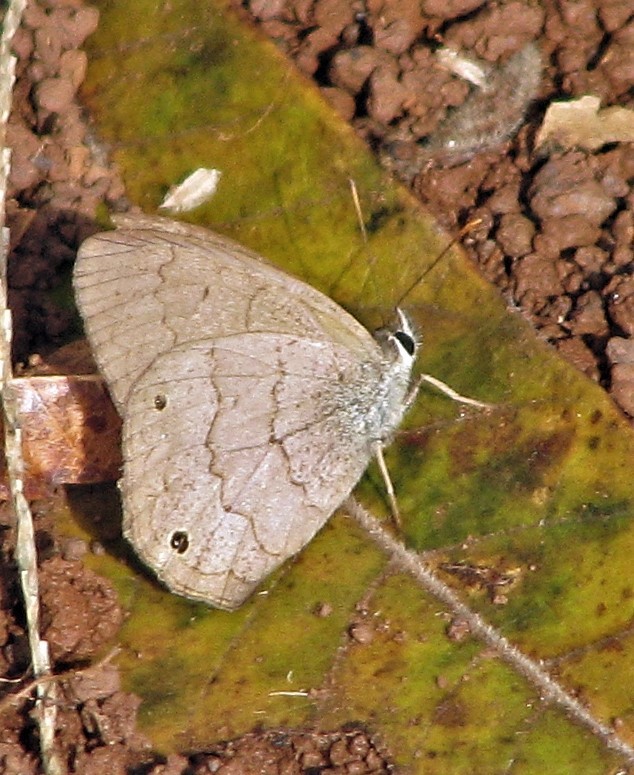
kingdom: Animalia
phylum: Arthropoda
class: Insecta
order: Lepidoptera
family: Nymphalidae
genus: Euptychia
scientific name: Euptychia Cissia eous
